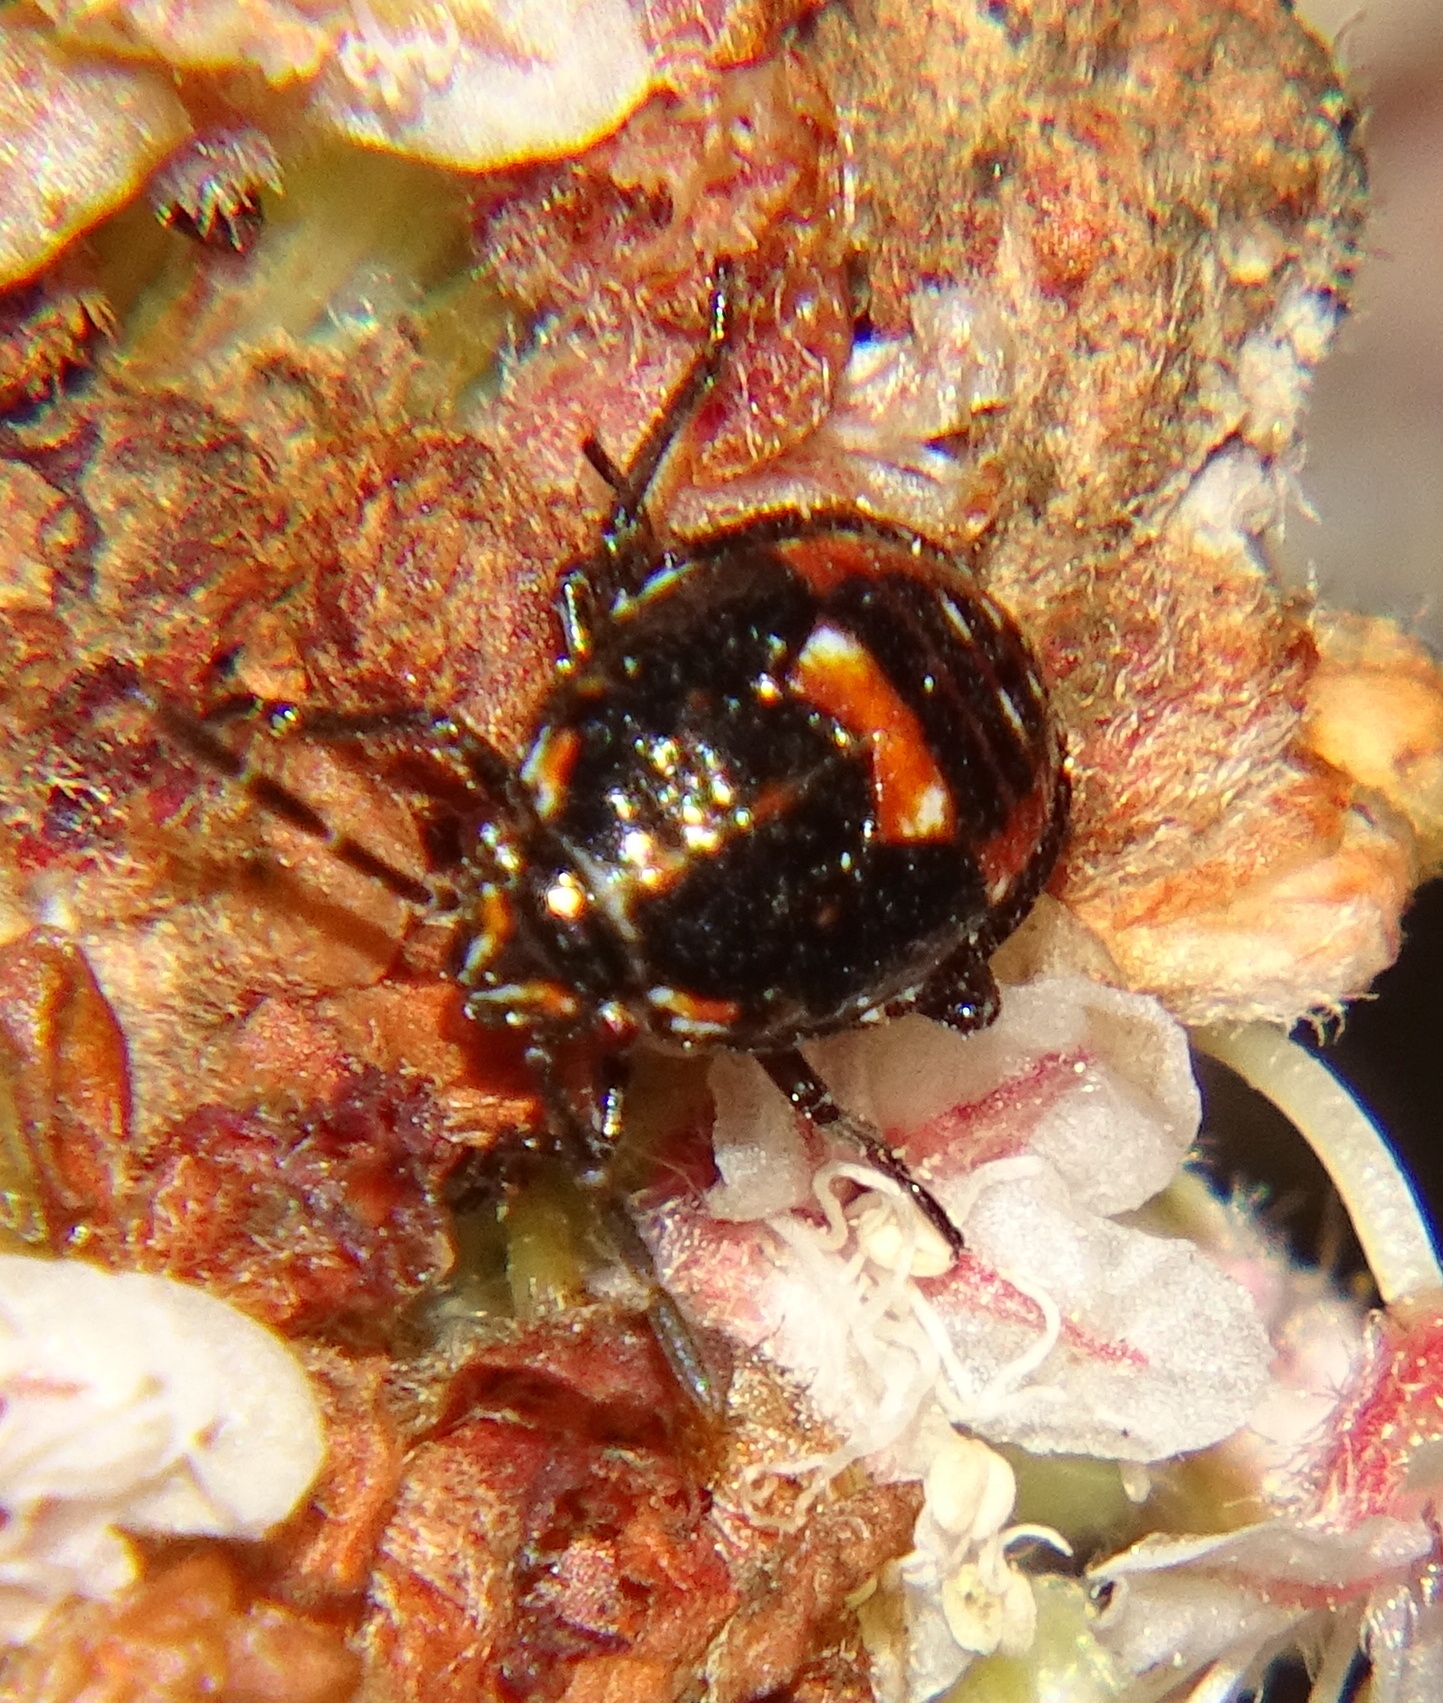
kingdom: Animalia
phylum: Arthropoda
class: Insecta
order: Hemiptera
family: Pentatomidae
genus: Bagrada
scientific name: Bagrada hilaris
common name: Bagrada bug
